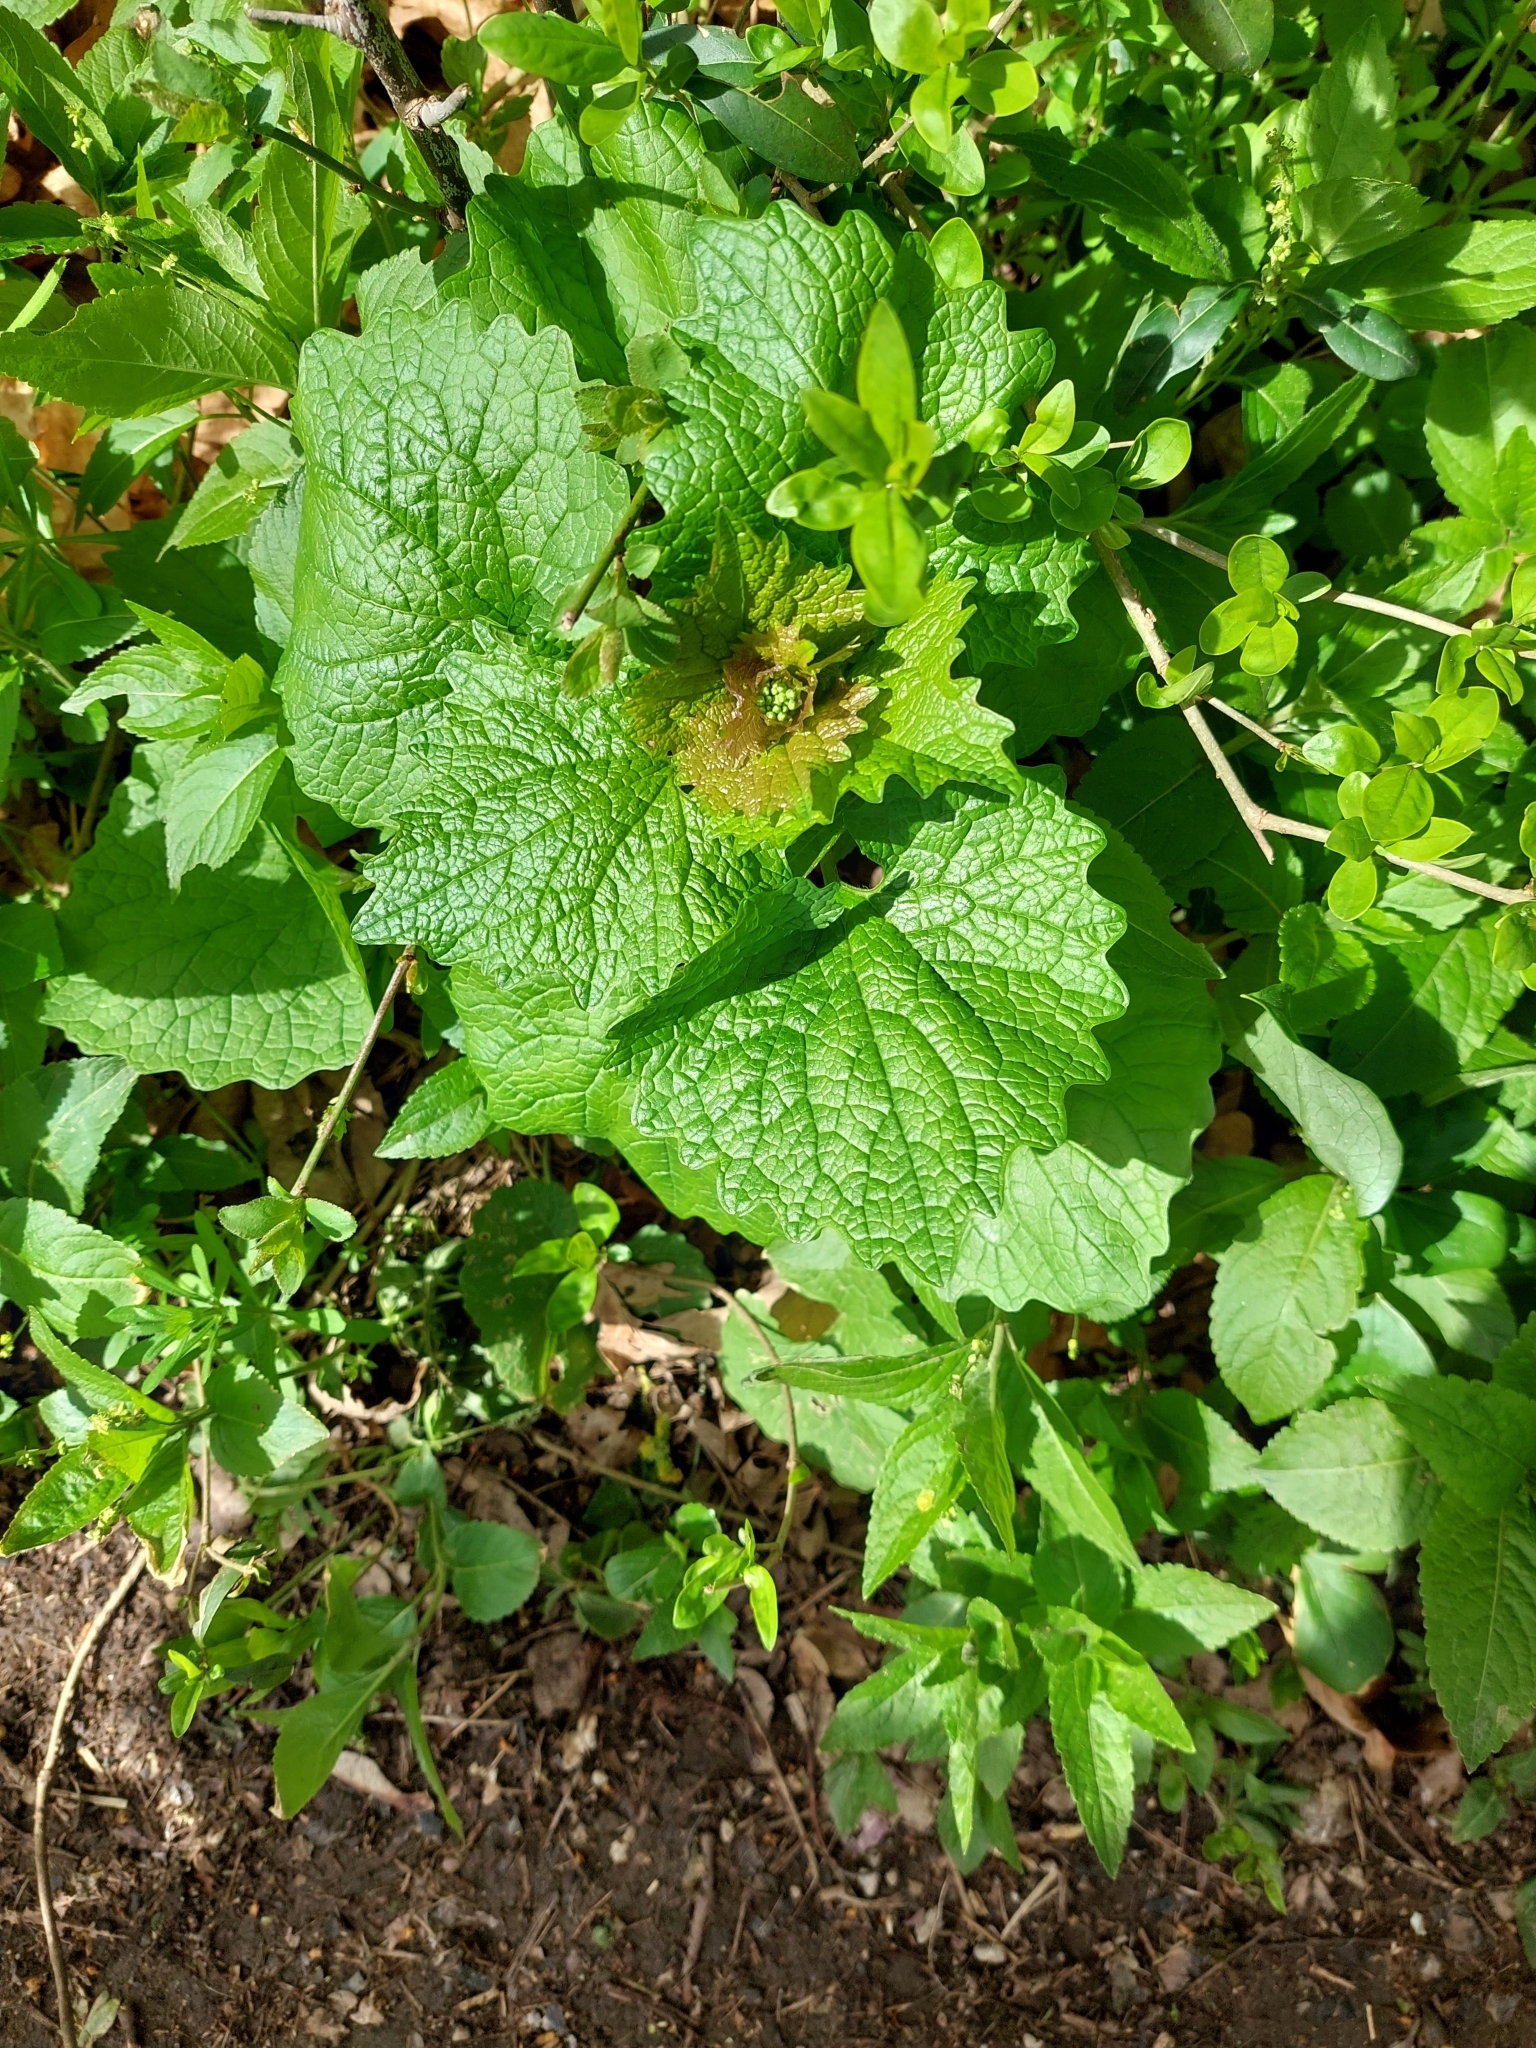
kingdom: Plantae
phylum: Tracheophyta
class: Magnoliopsida
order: Brassicales
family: Brassicaceae
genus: Alliaria
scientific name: Alliaria petiolata
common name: Garlic mustard
